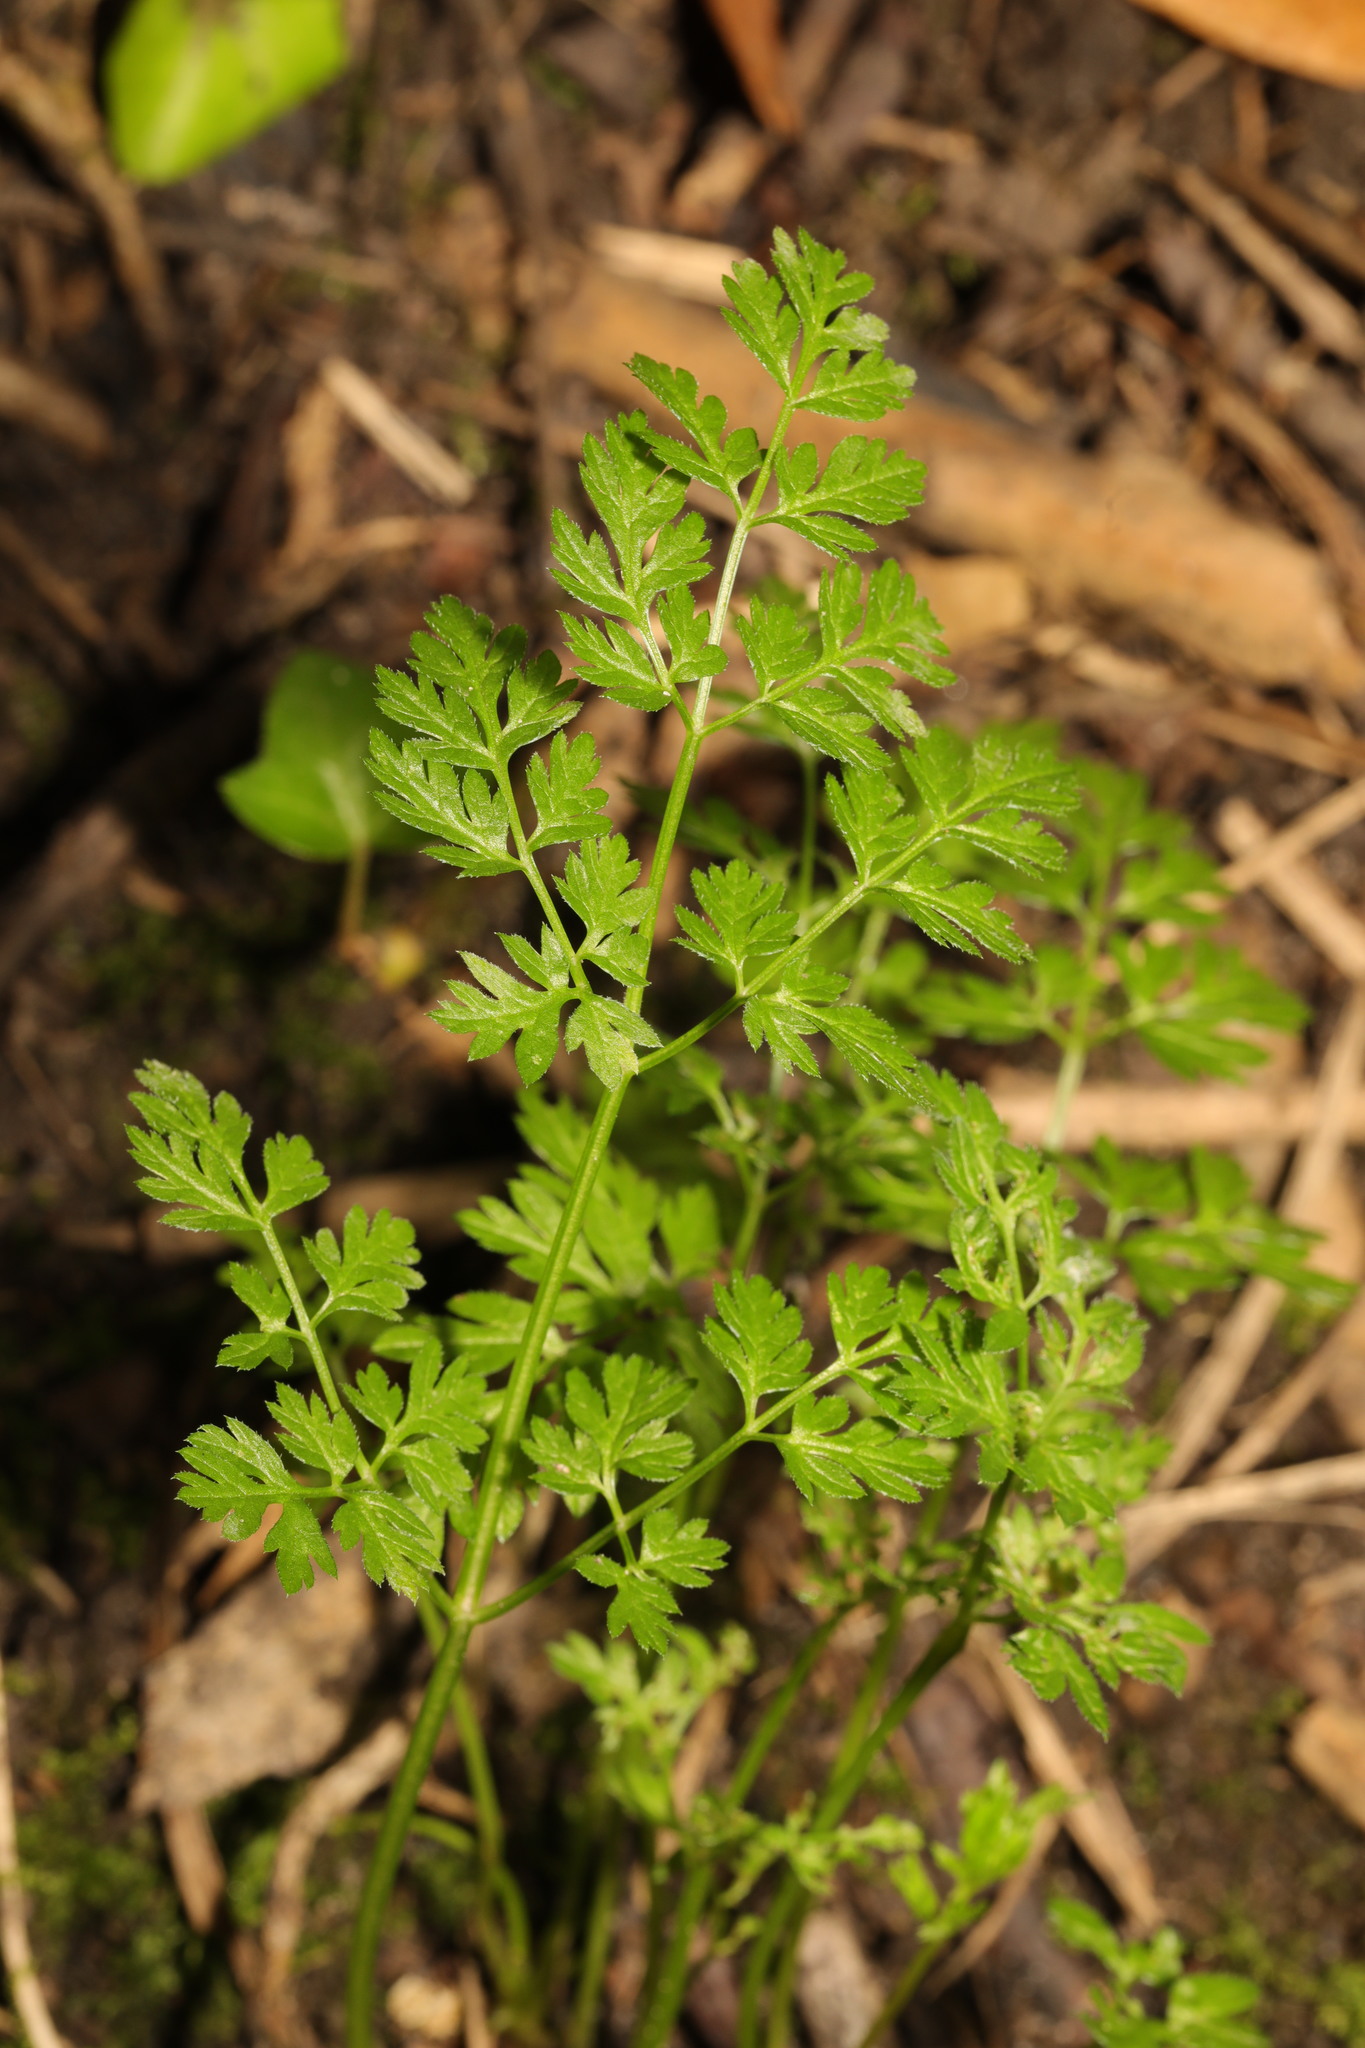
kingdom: Plantae
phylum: Tracheophyta
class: Magnoliopsida
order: Apiales
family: Apiaceae
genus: Anthriscus
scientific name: Anthriscus sylvestris
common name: Cow parsley
